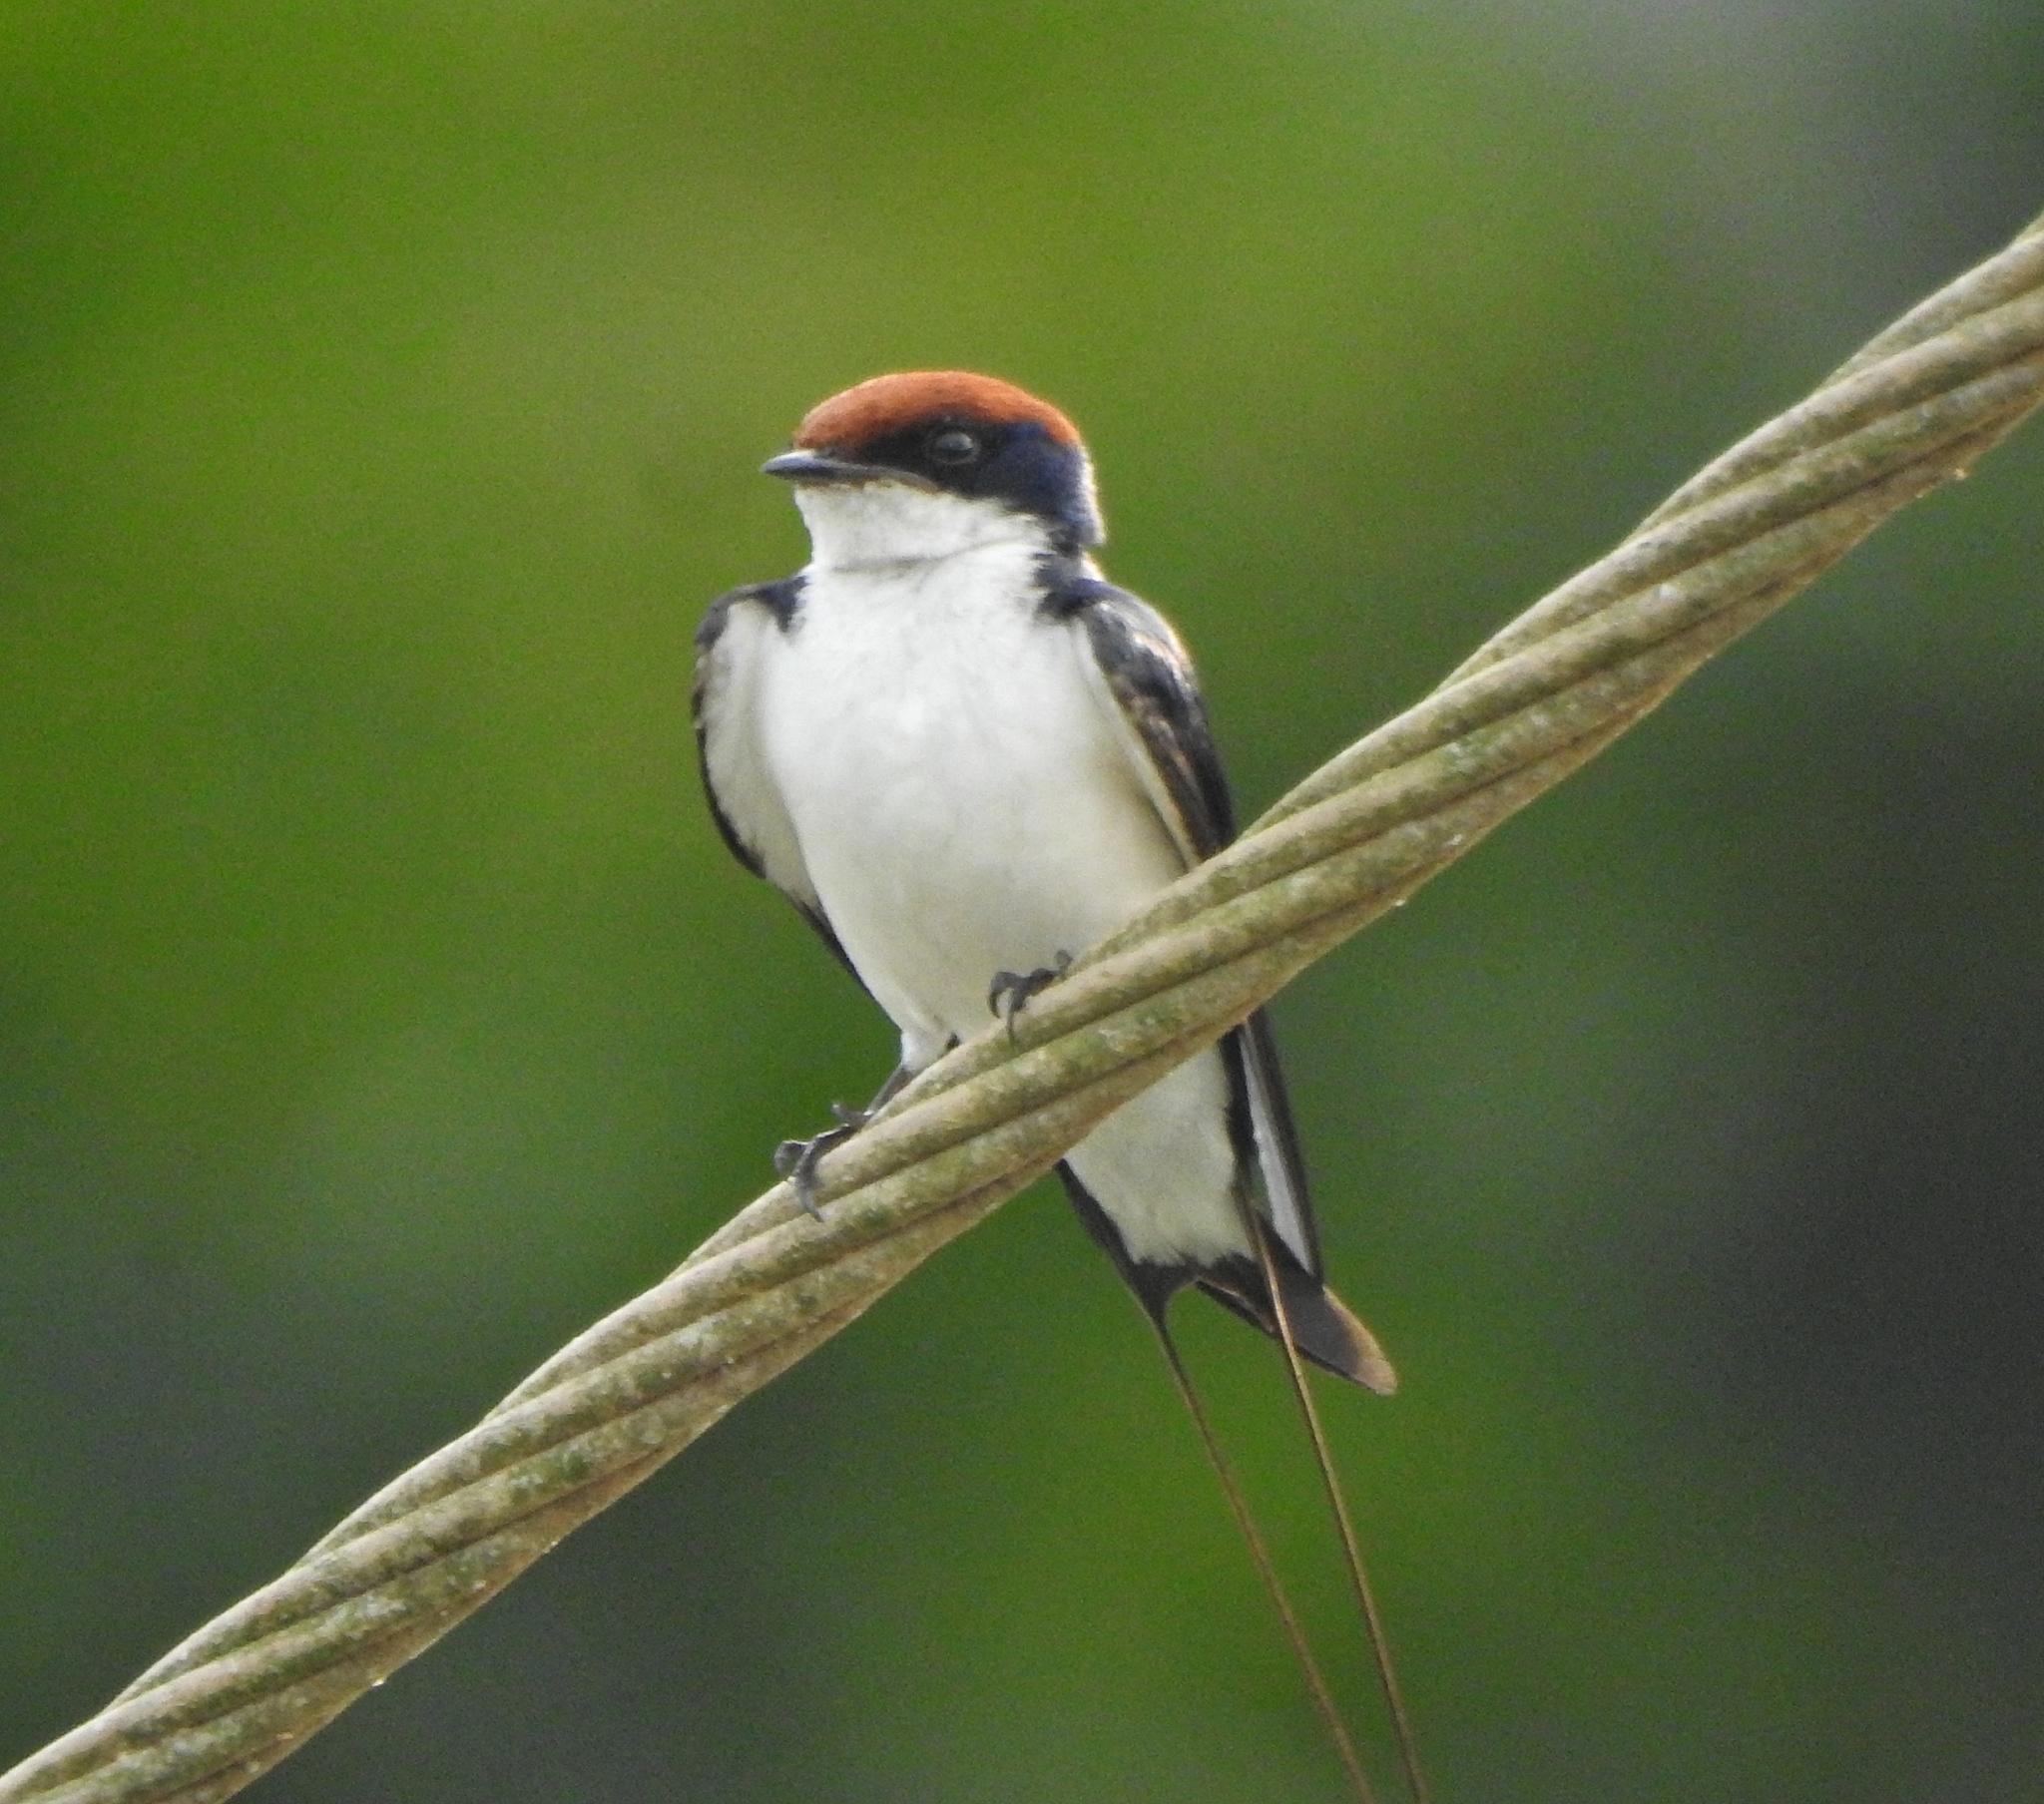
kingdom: Animalia
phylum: Chordata
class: Aves
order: Passeriformes
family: Hirundinidae
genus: Hirundo
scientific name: Hirundo smithii
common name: Wire-tailed swallow
